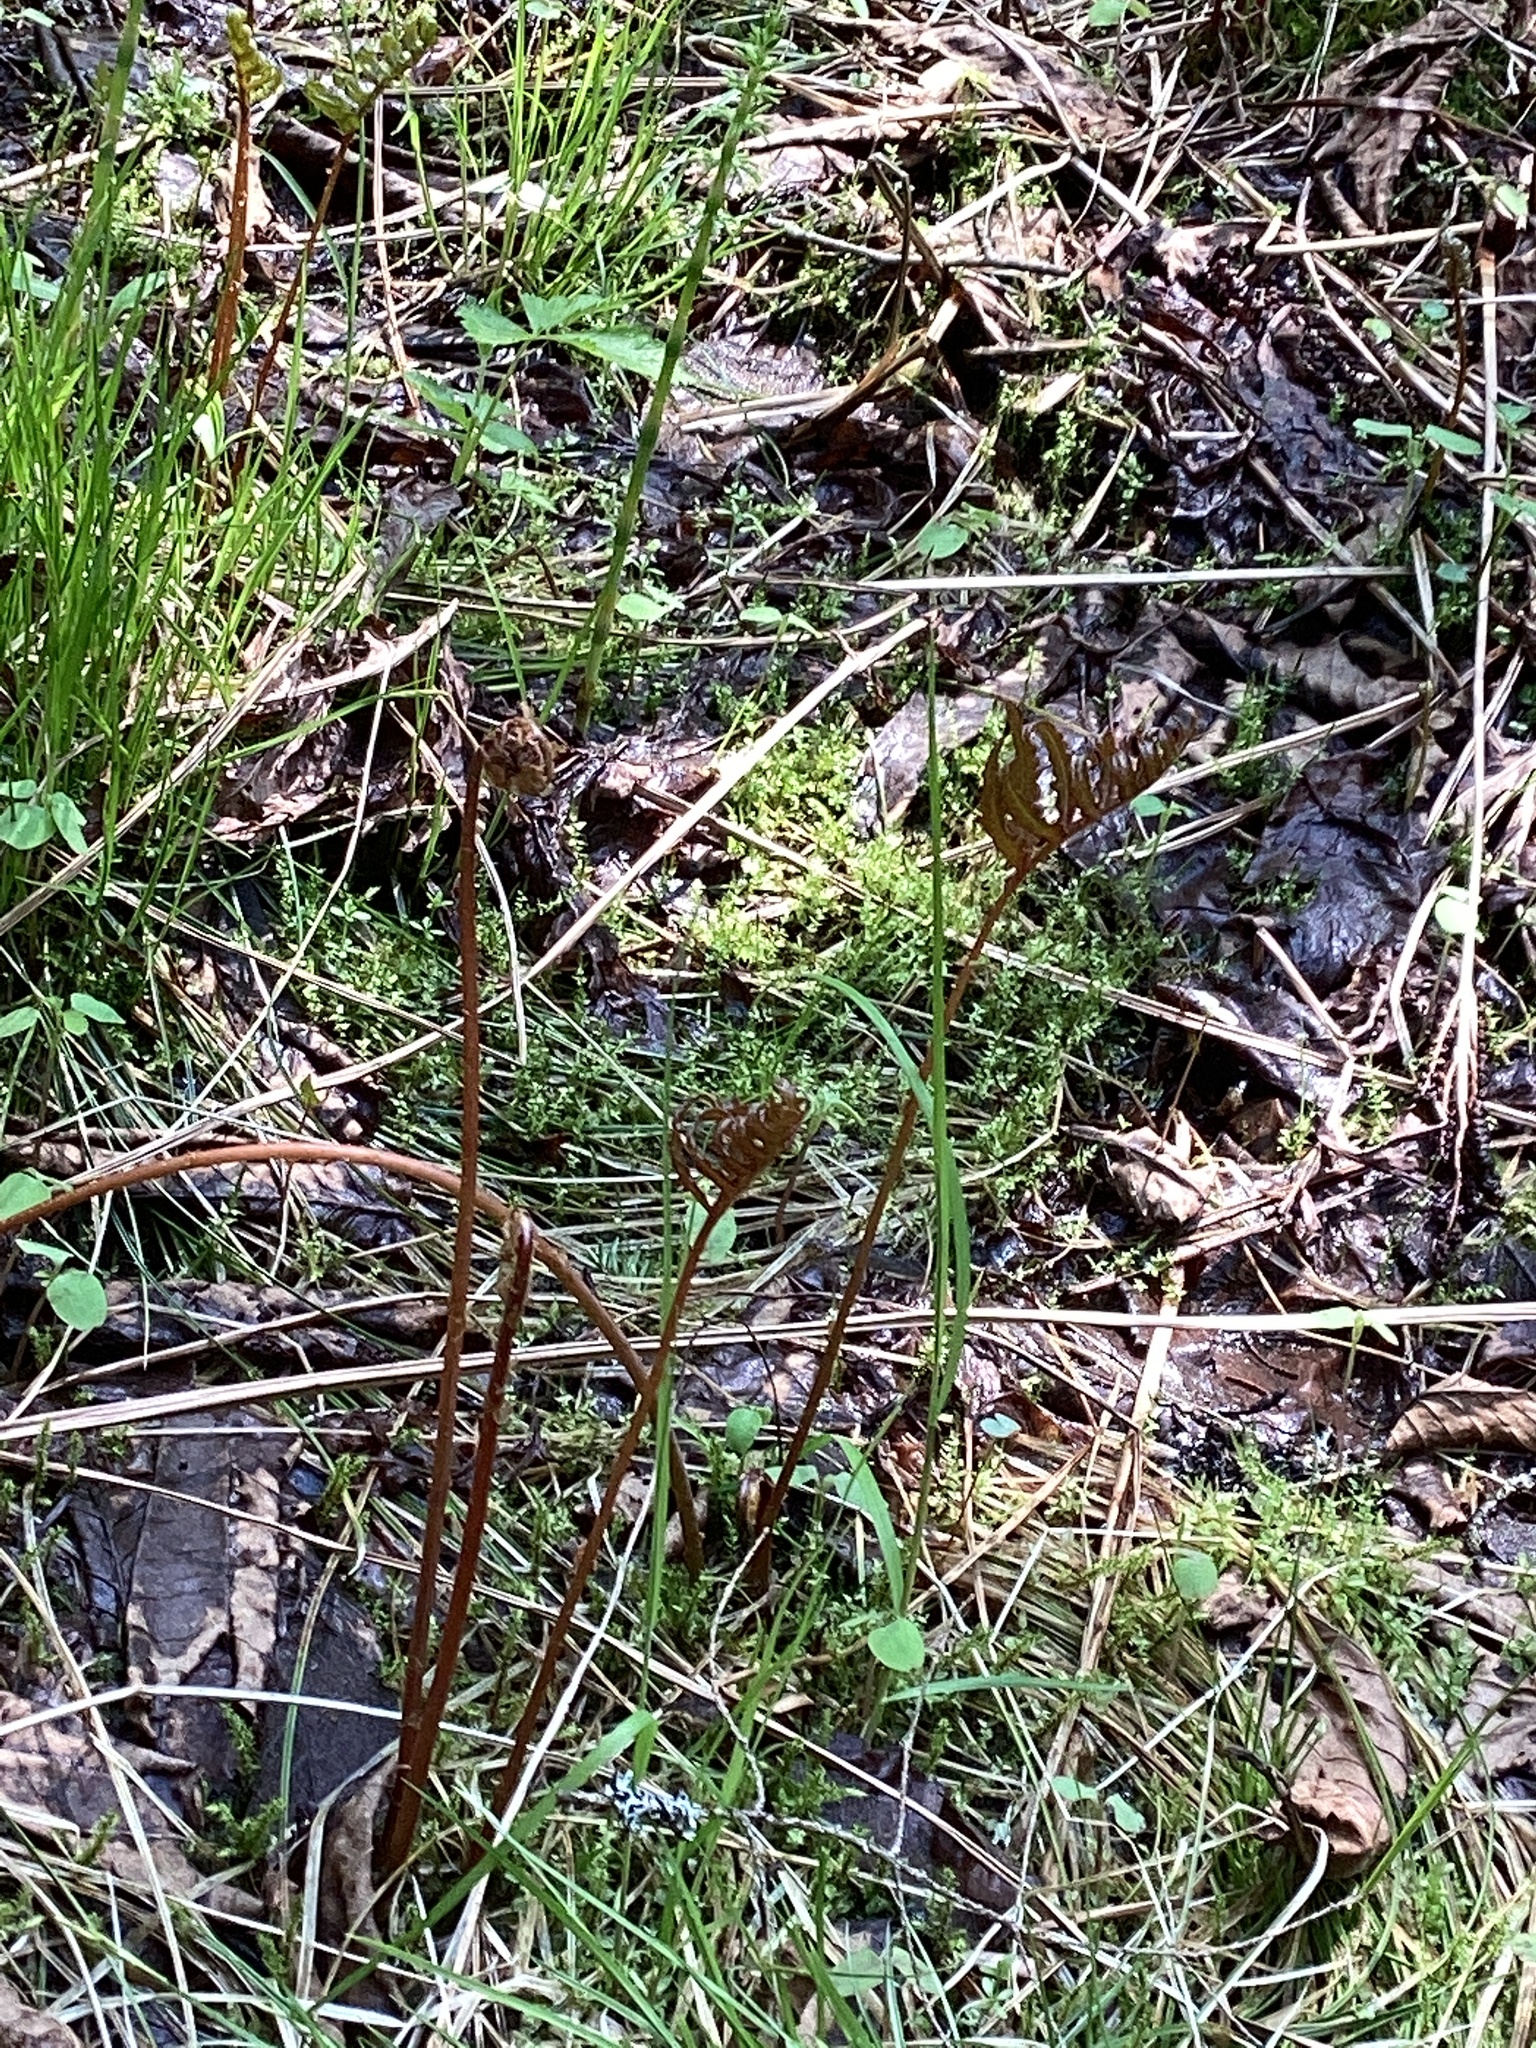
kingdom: Plantae
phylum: Tracheophyta
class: Polypodiopsida
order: Polypodiales
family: Onocleaceae
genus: Onoclea
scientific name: Onoclea sensibilis
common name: Sensitive fern
